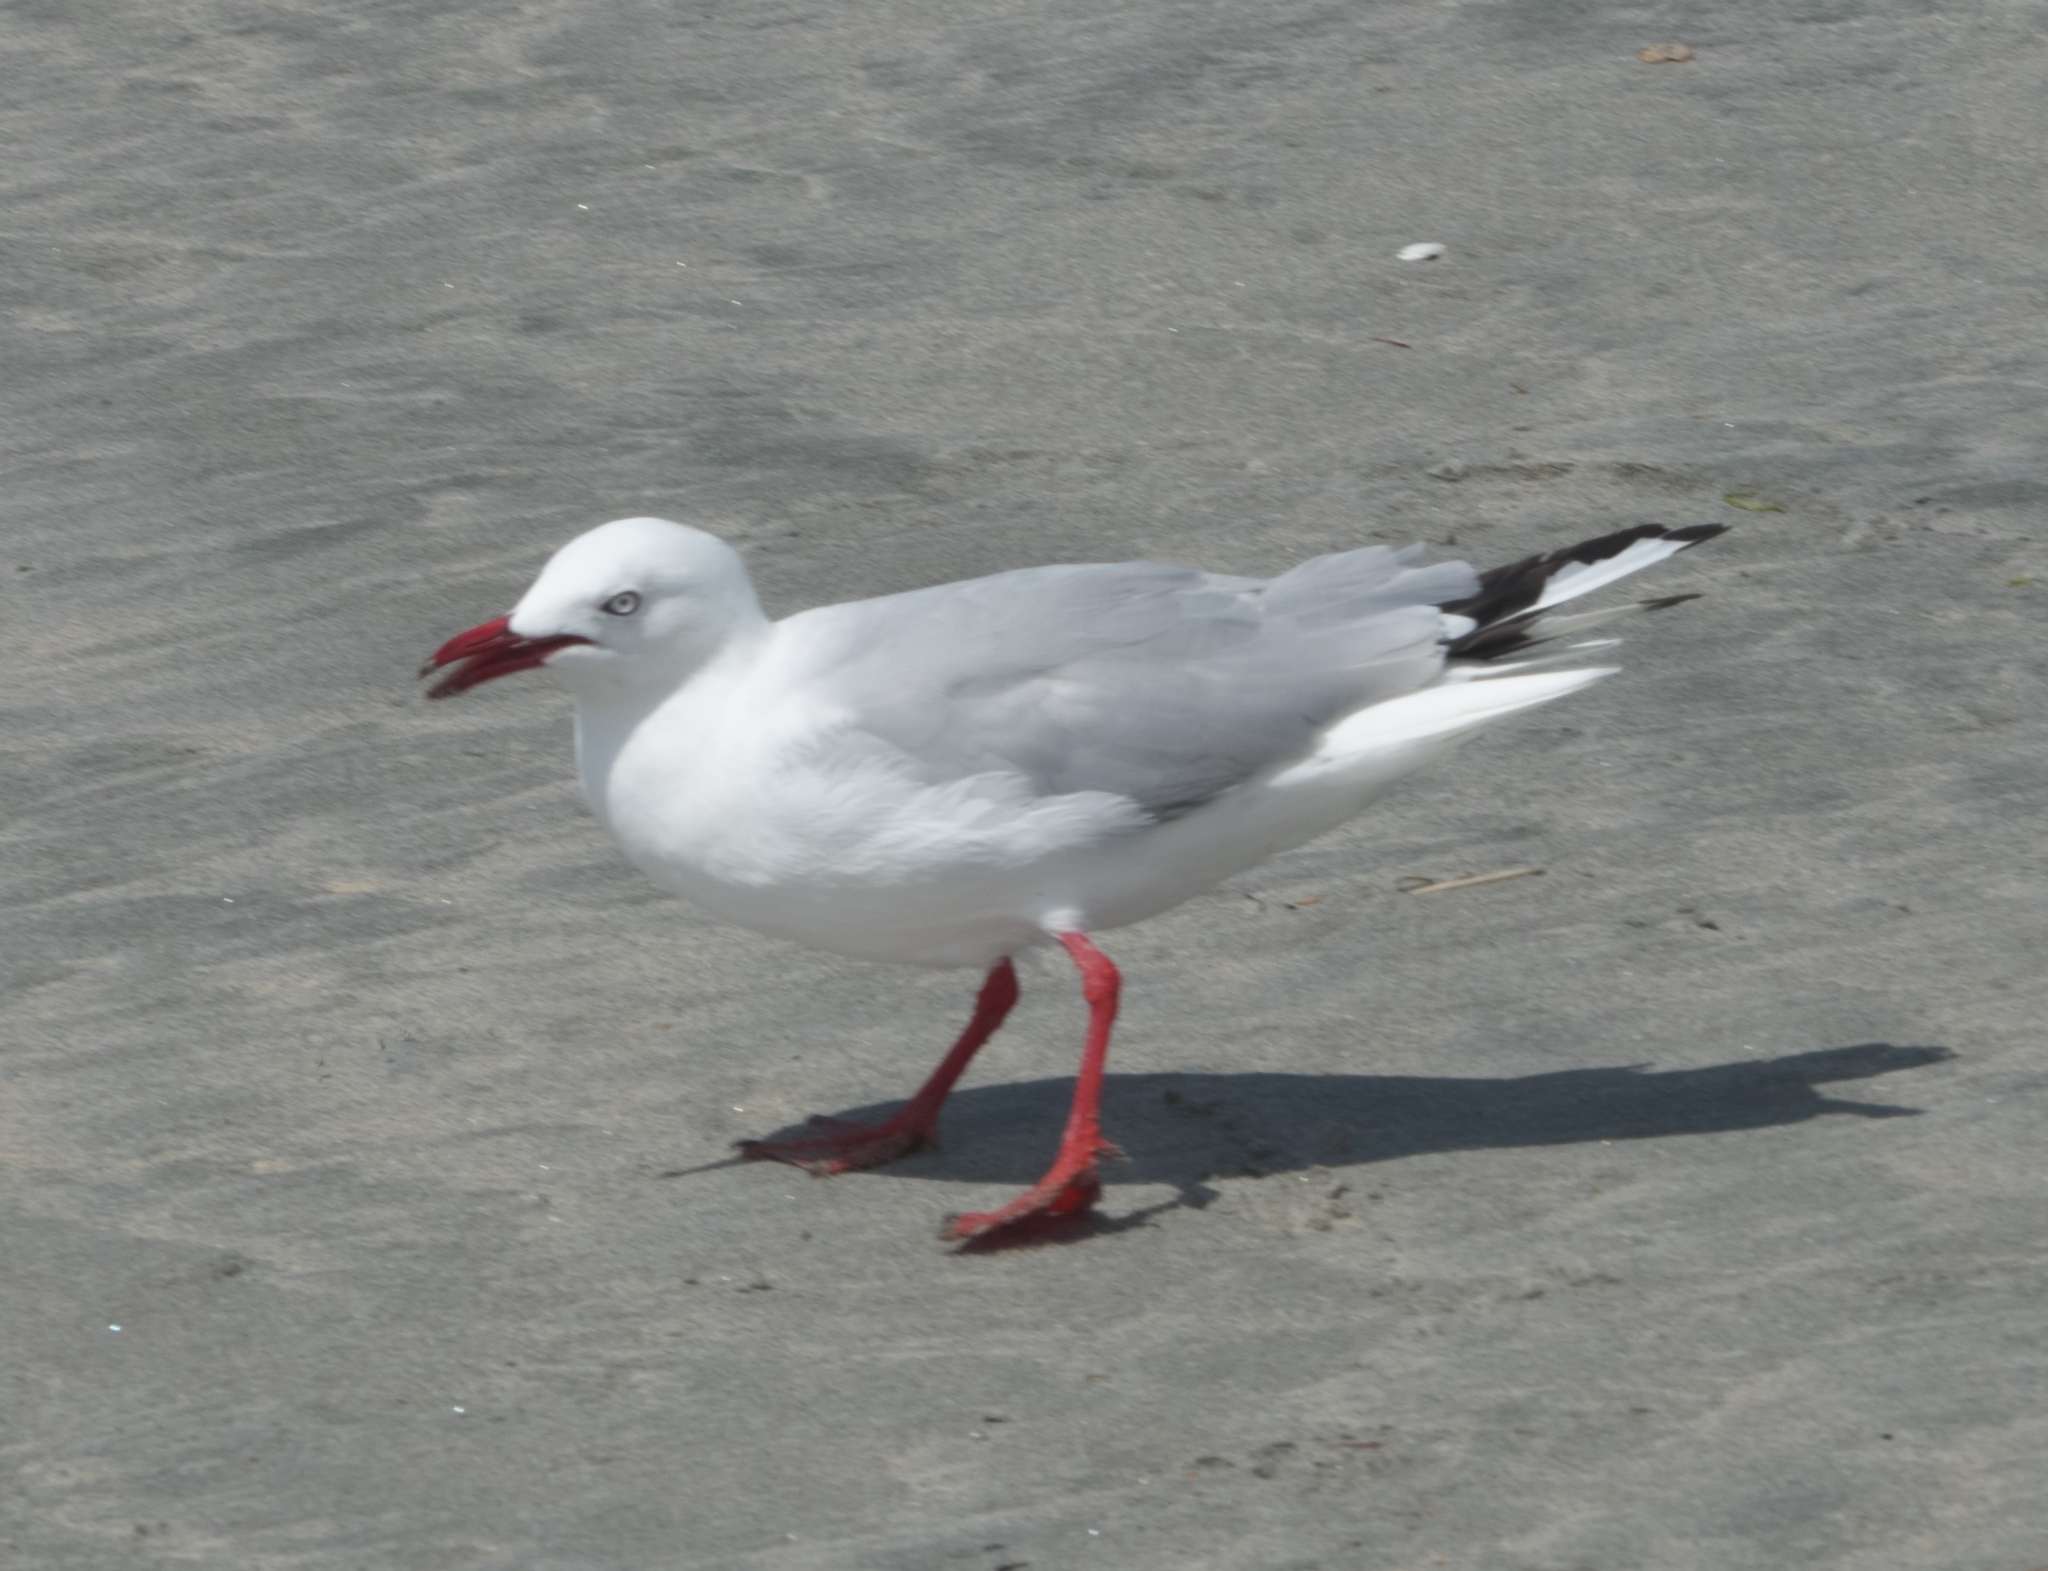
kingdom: Animalia
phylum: Chordata
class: Aves
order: Charadriiformes
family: Laridae
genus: Chroicocephalus
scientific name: Chroicocephalus novaehollandiae
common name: Silver gull
